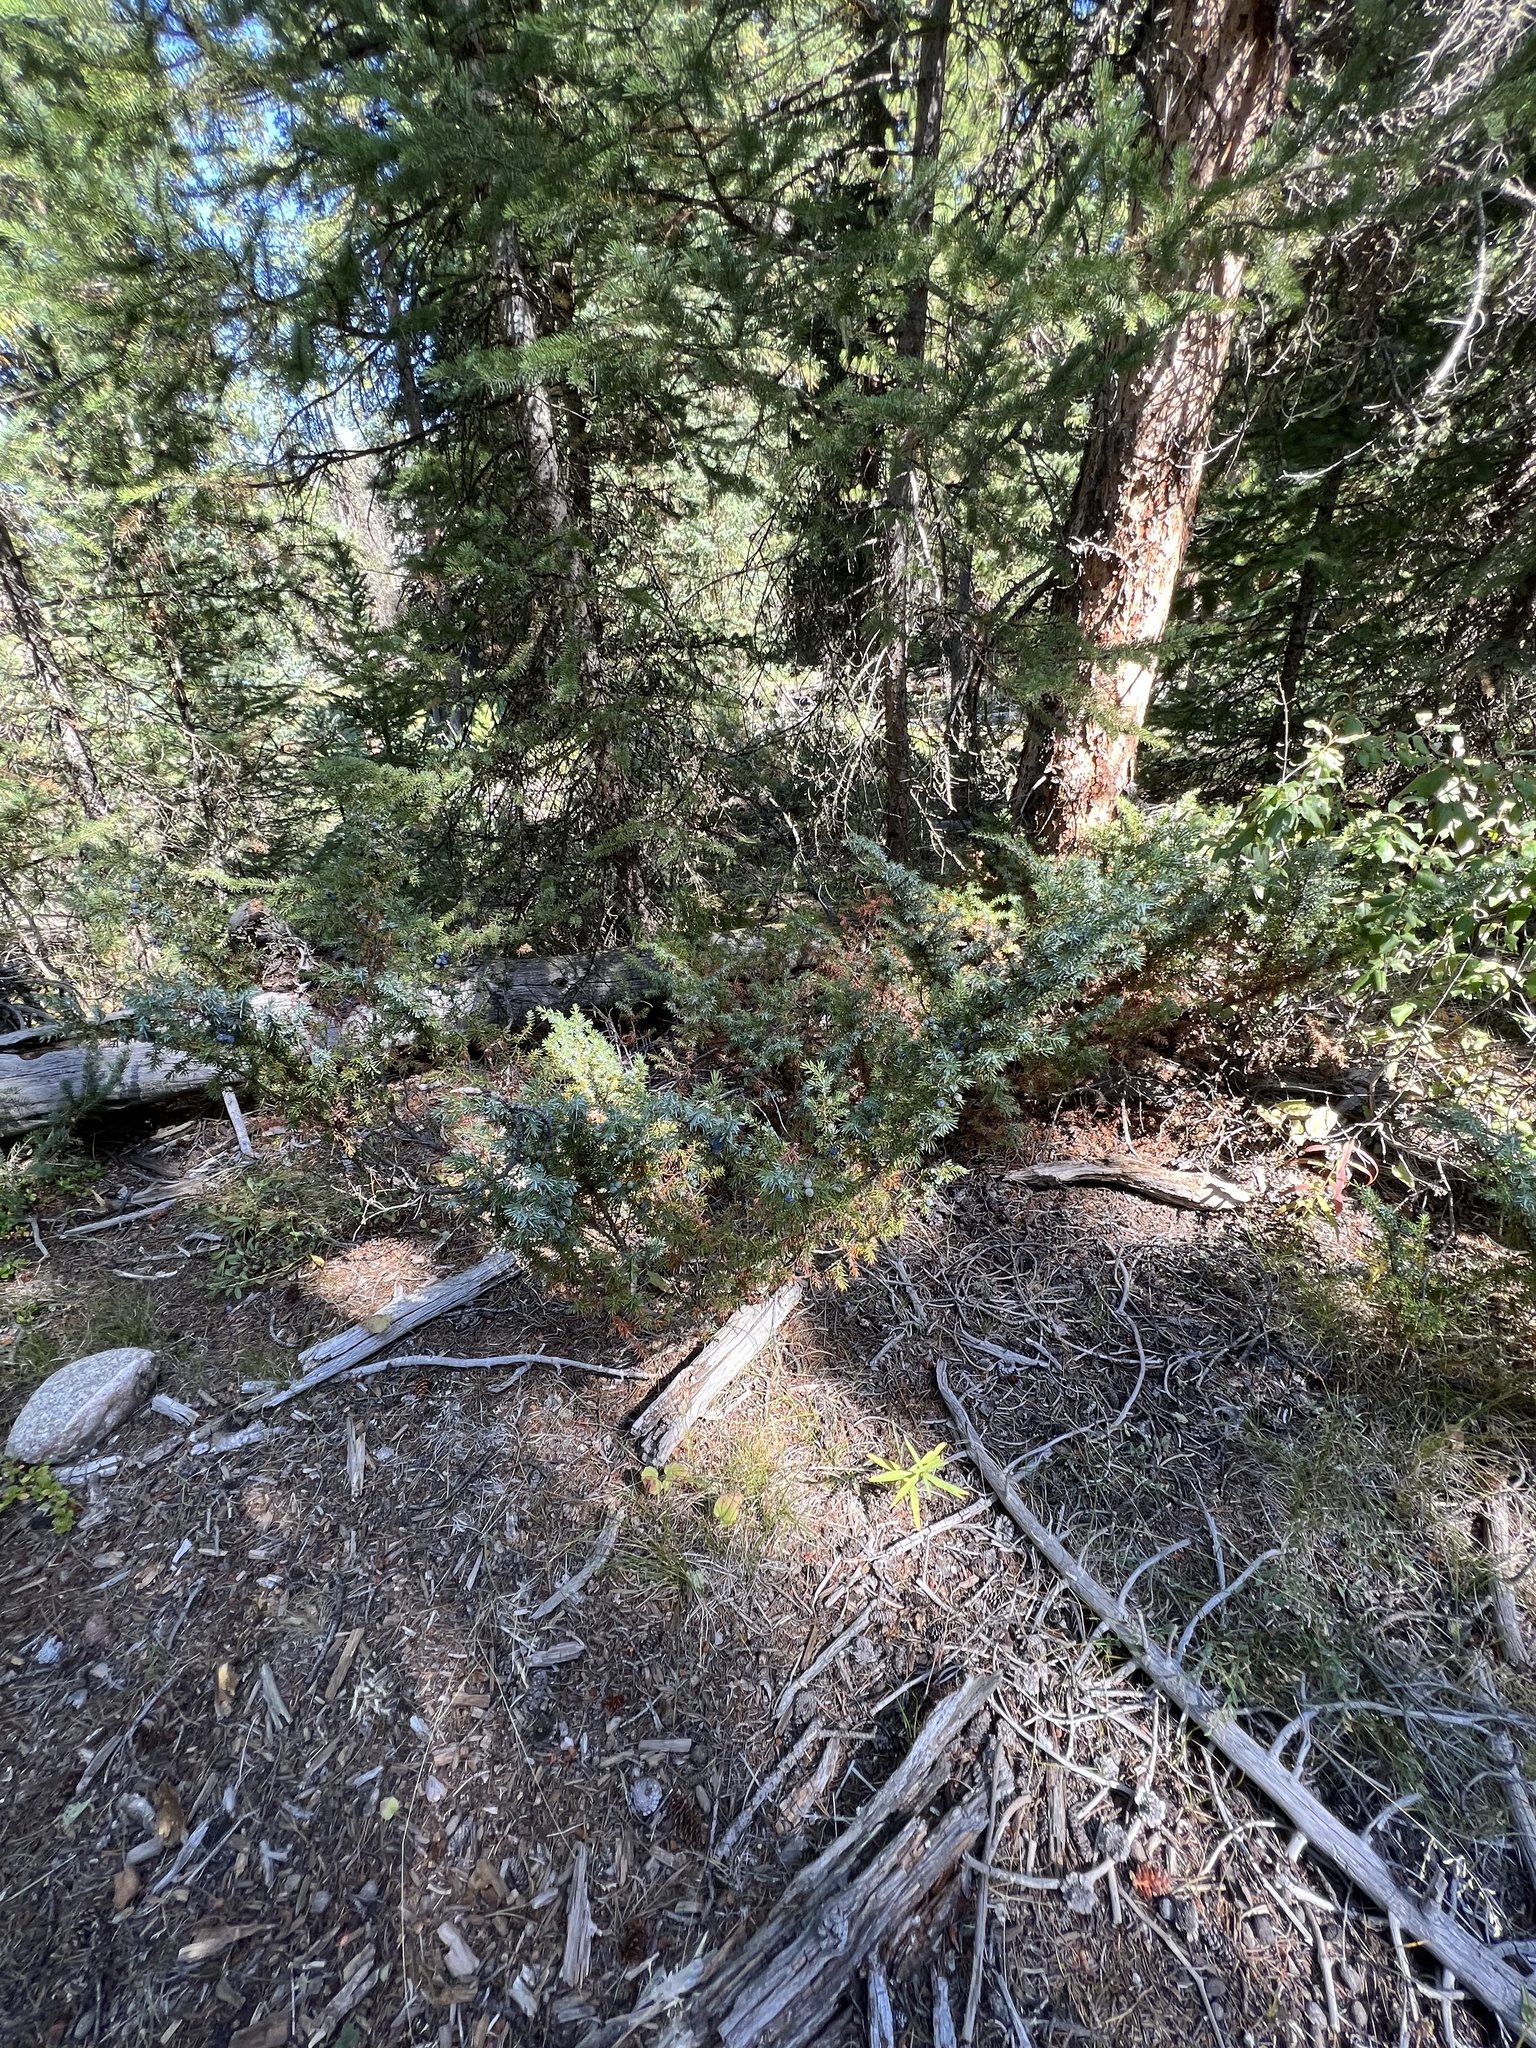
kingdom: Plantae
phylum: Tracheophyta
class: Pinopsida
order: Pinales
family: Cupressaceae
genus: Juniperus
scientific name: Juniperus communis
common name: Common juniper
